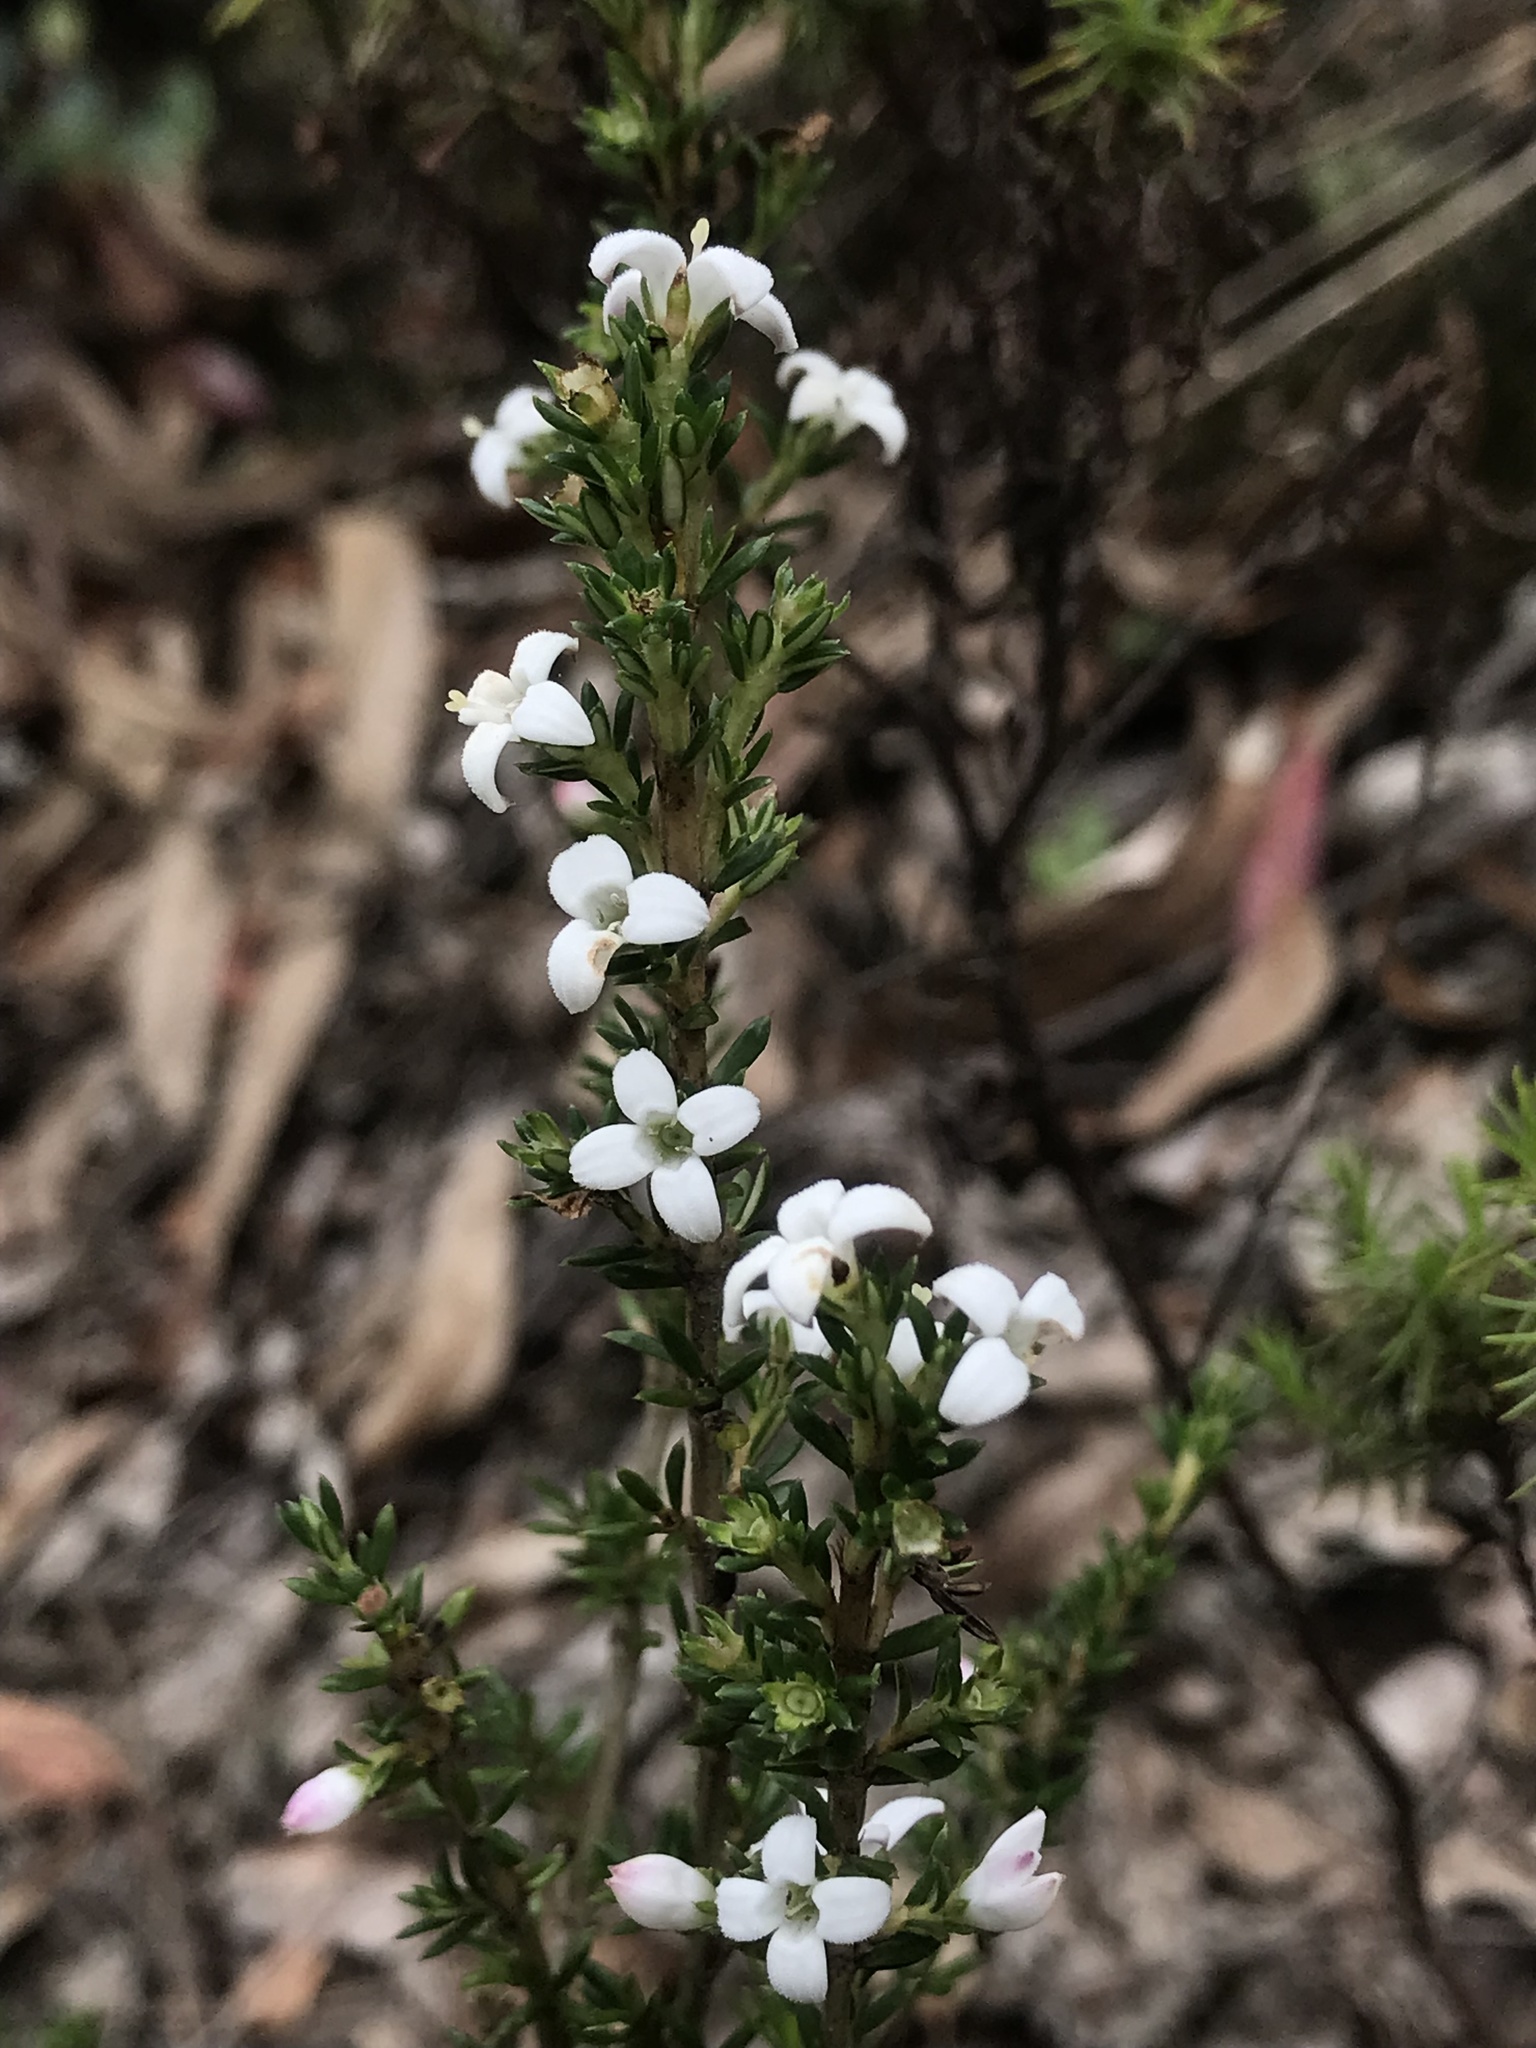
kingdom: Plantae
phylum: Tracheophyta
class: Magnoliopsida
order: Gentianales
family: Rubiaceae
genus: Arcytophyllum
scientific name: Arcytophyllum nitidum
